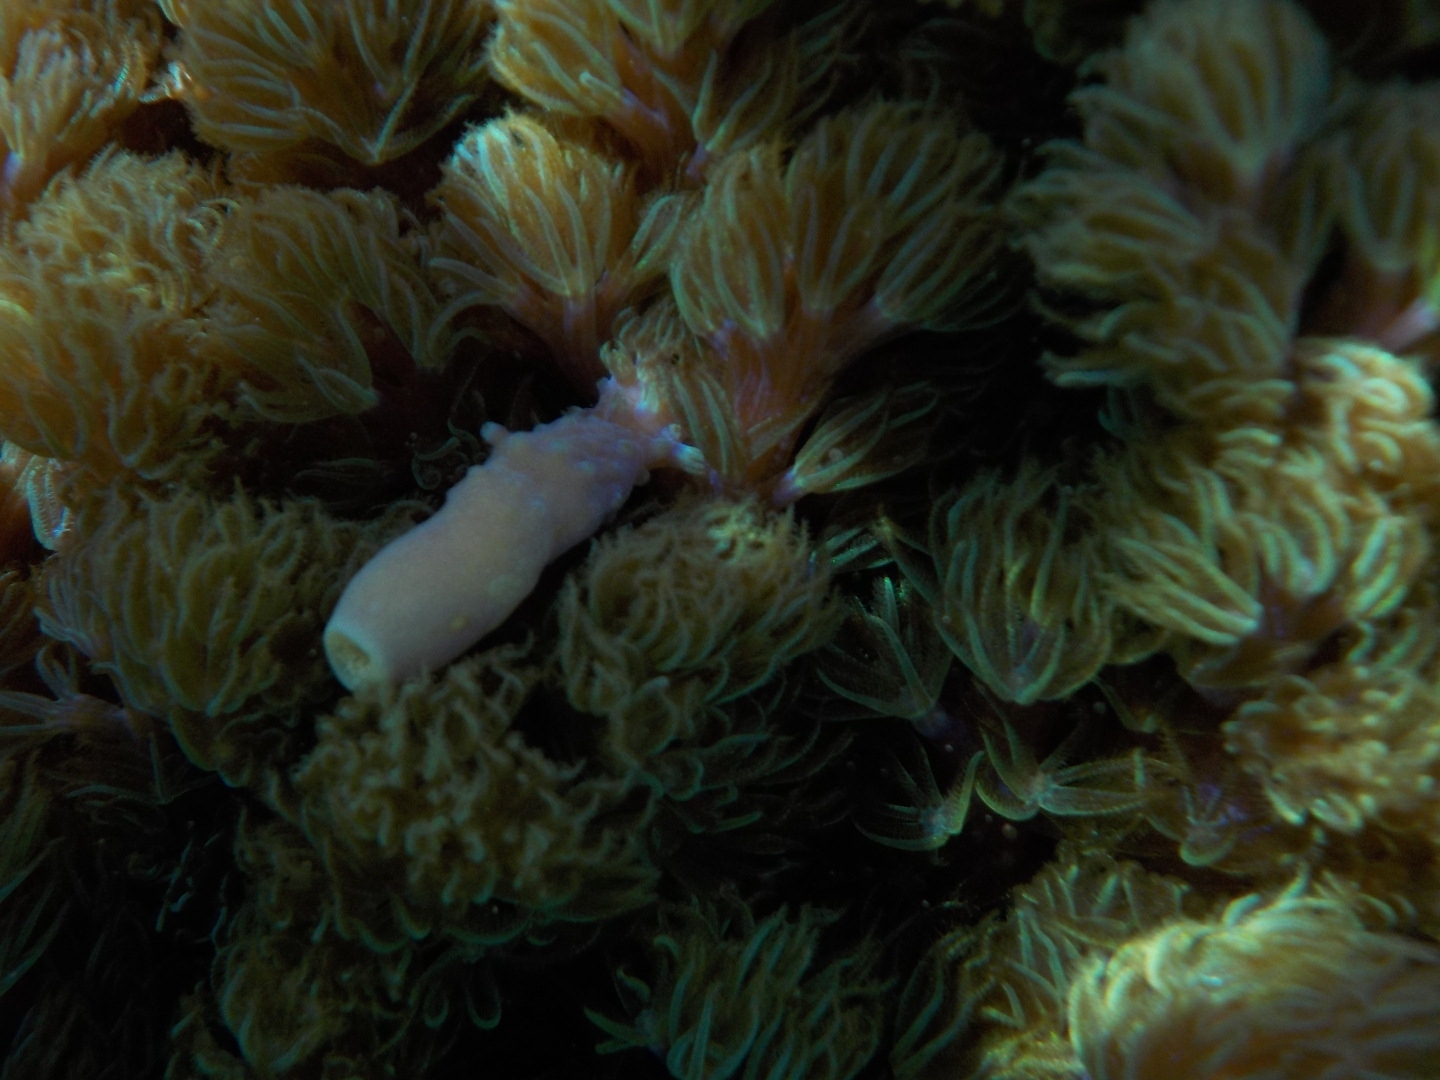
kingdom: Animalia
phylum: Cnidaria
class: Anthozoa
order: Malacalcyonacea
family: Xeniidae
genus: Conglomeratusclera
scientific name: Conglomeratusclera coerulea
